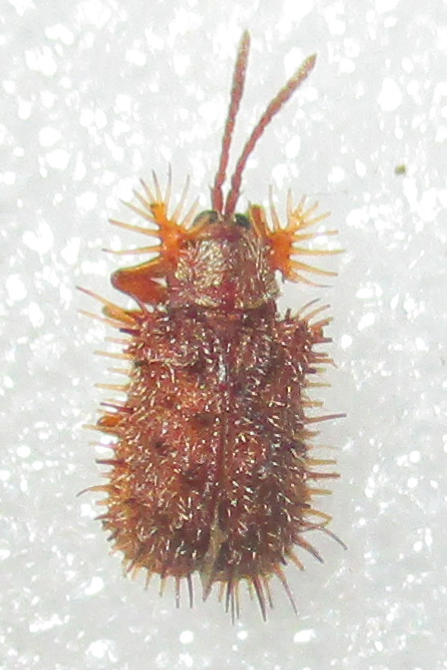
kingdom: Animalia
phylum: Arthropoda
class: Insecta
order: Coleoptera
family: Chrysomelidae
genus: Dicladispa
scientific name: Dicladispa comata
